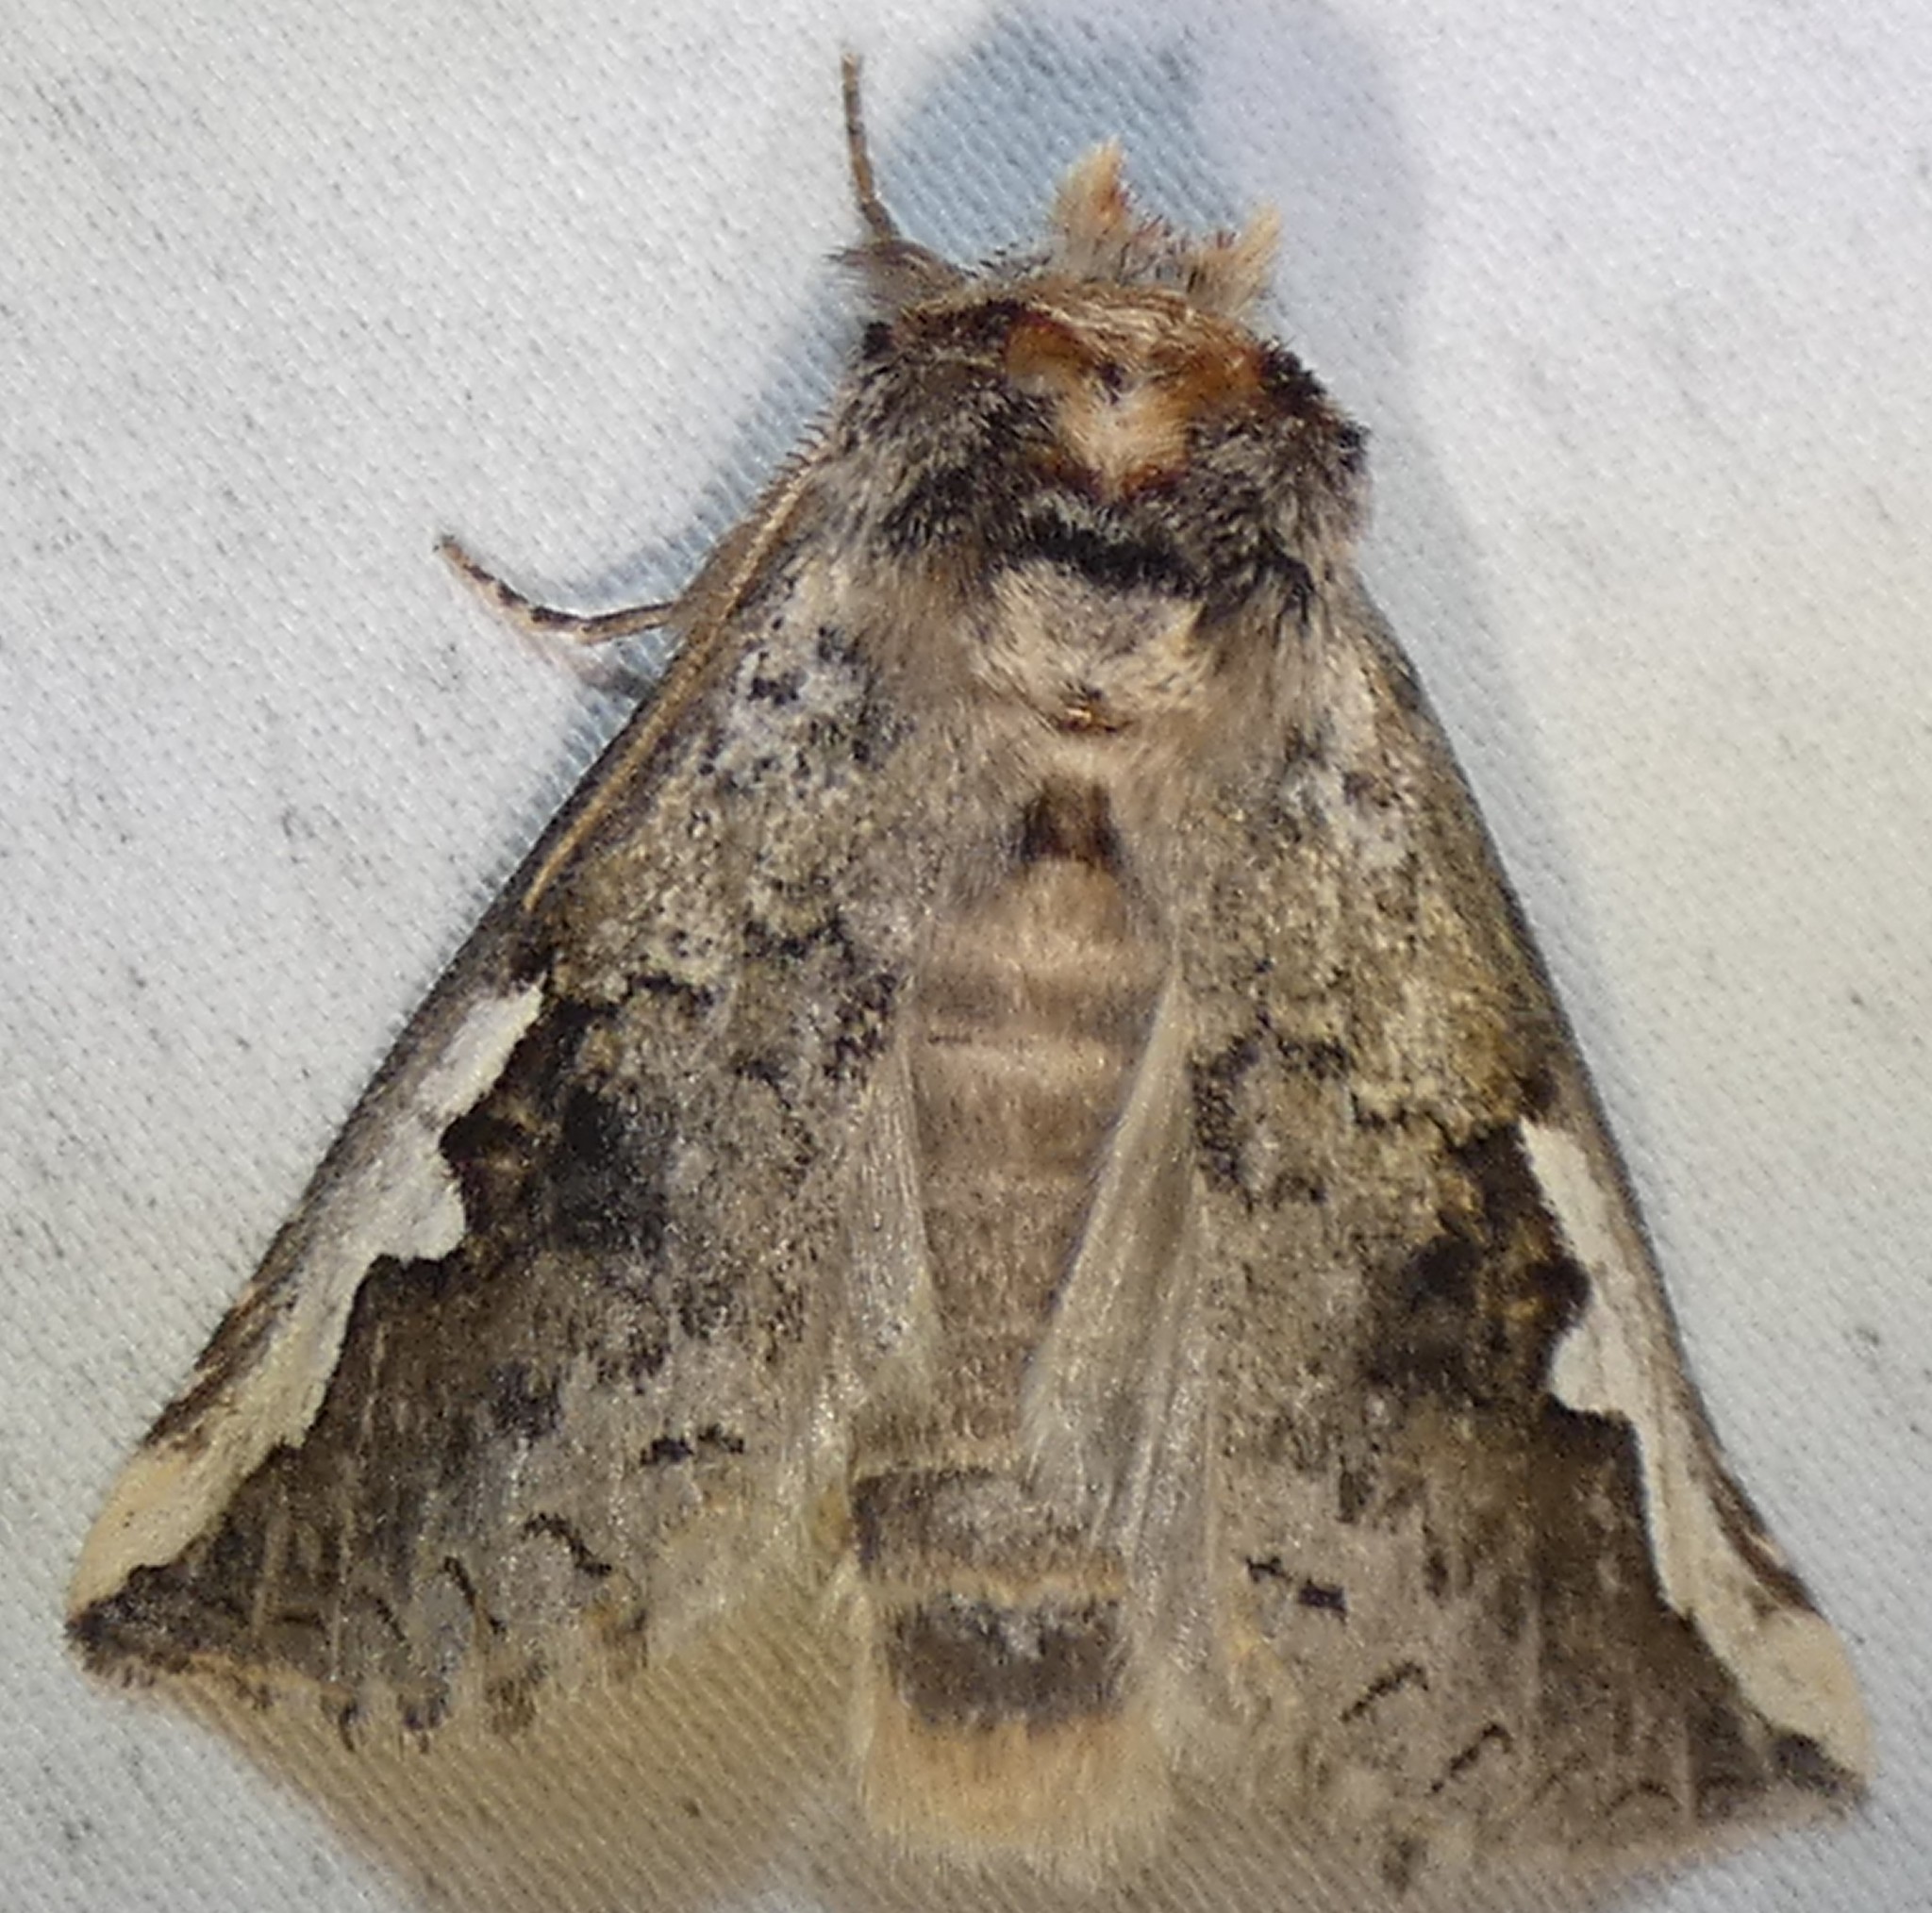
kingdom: Animalia
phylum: Arthropoda
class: Insecta
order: Lepidoptera
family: Notodontidae
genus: Symmerista
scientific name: Symmerista albifrons
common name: White-headed prominent
